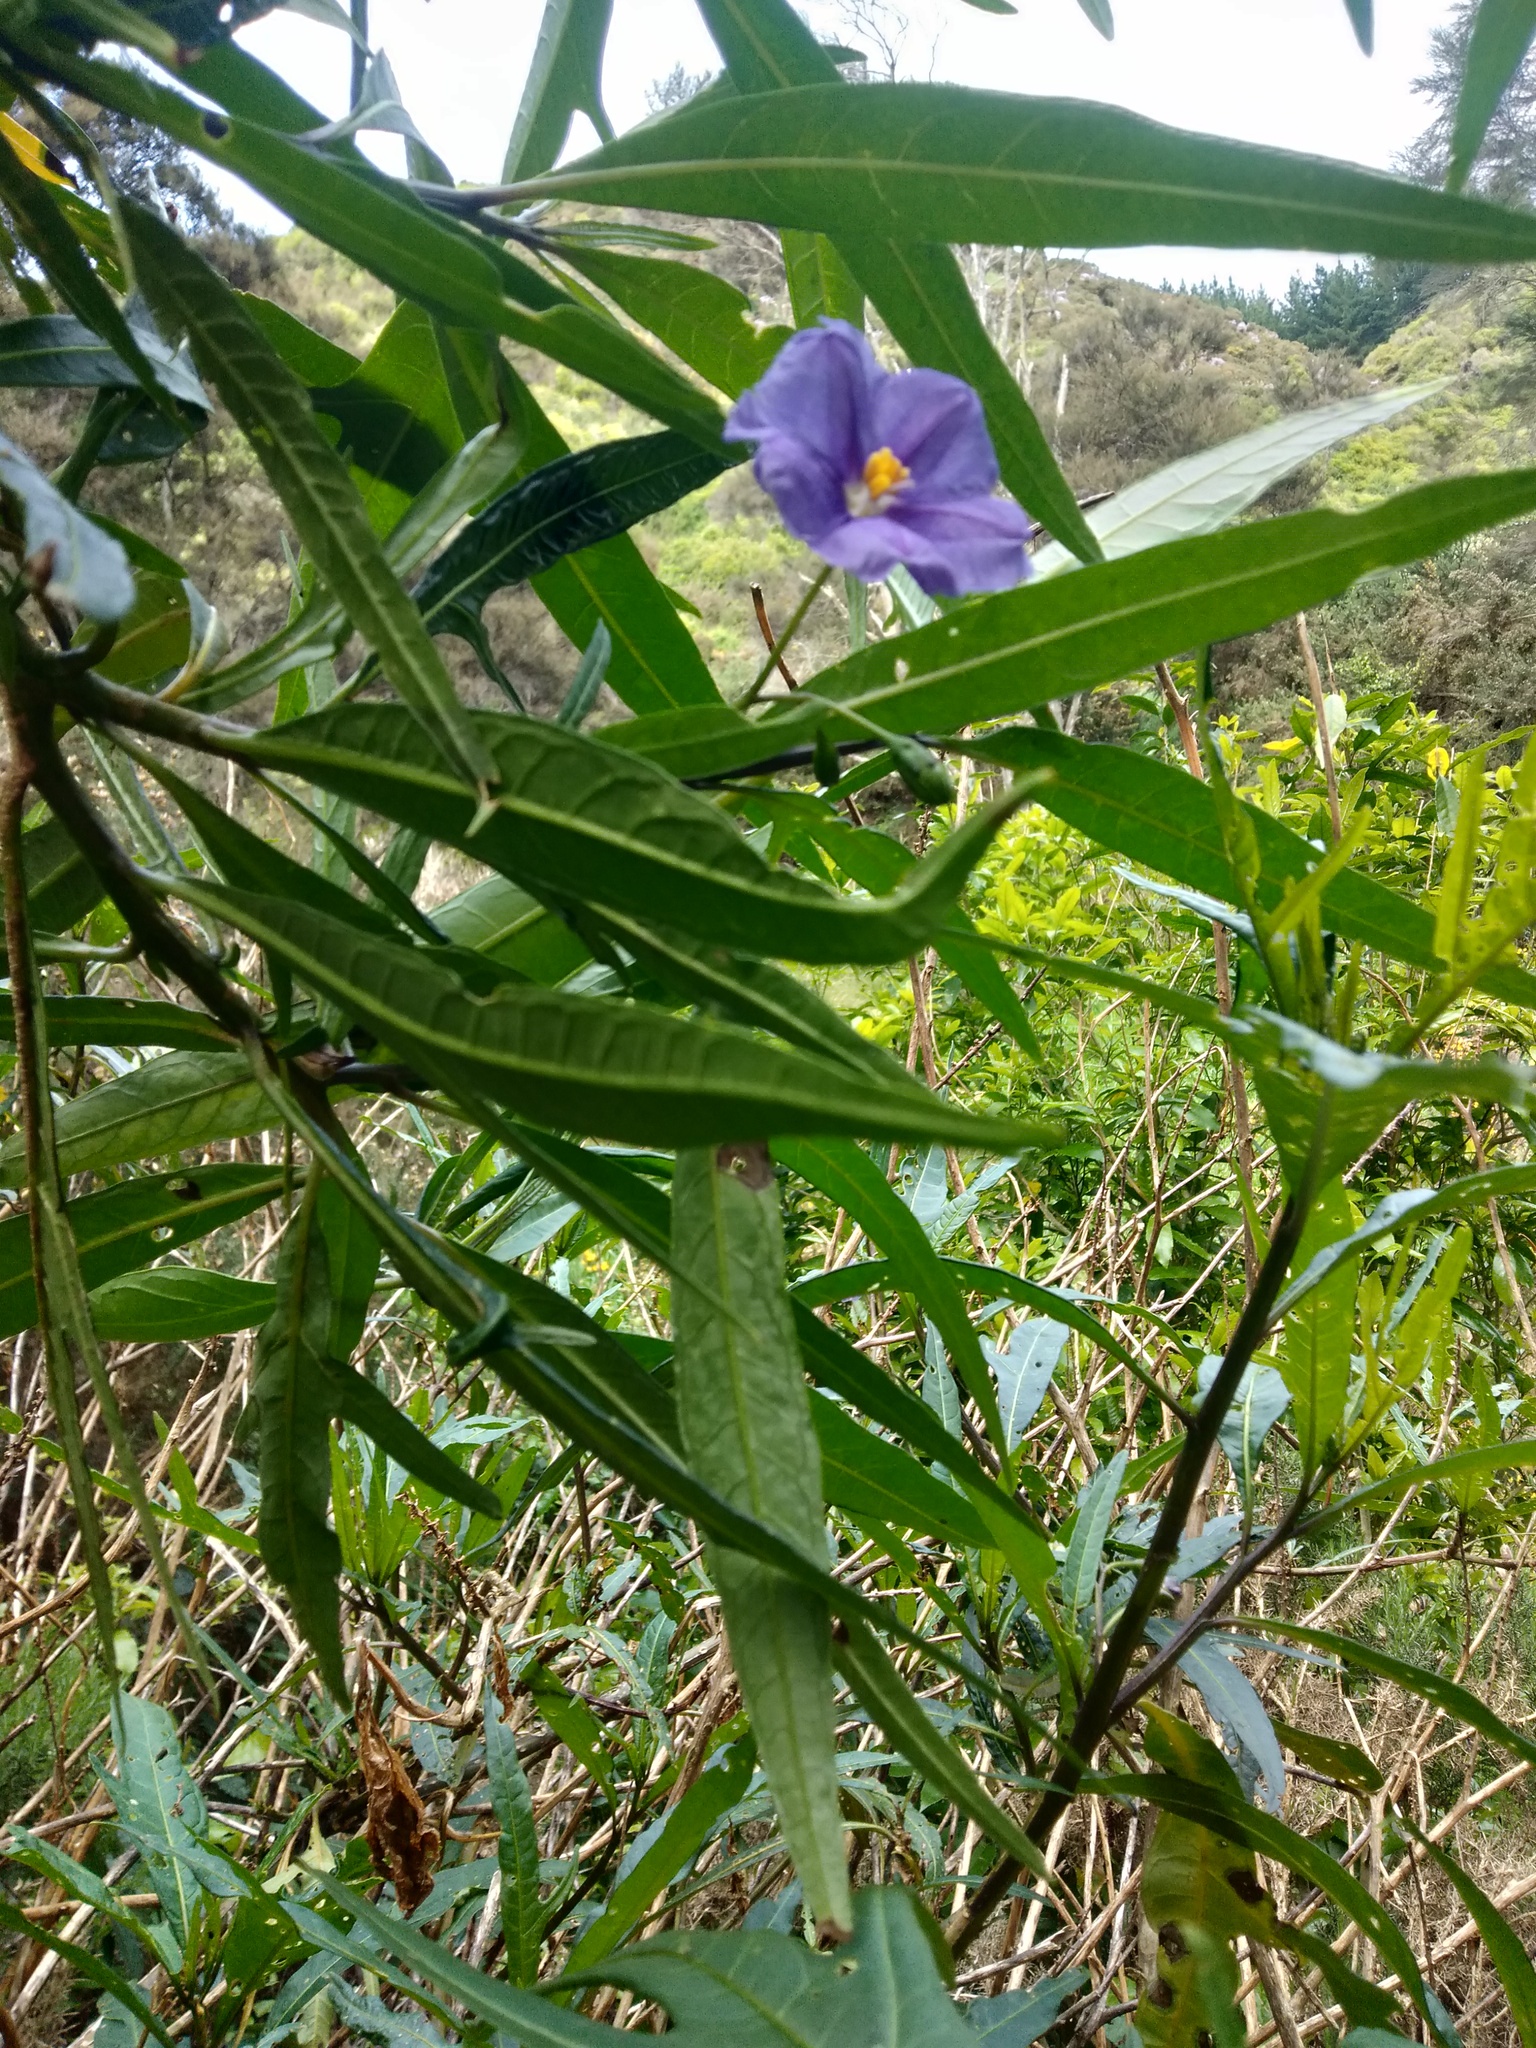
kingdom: Plantae
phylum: Tracheophyta
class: Magnoliopsida
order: Solanales
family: Solanaceae
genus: Solanum
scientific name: Solanum laciniatum
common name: Kangaroo-apple
